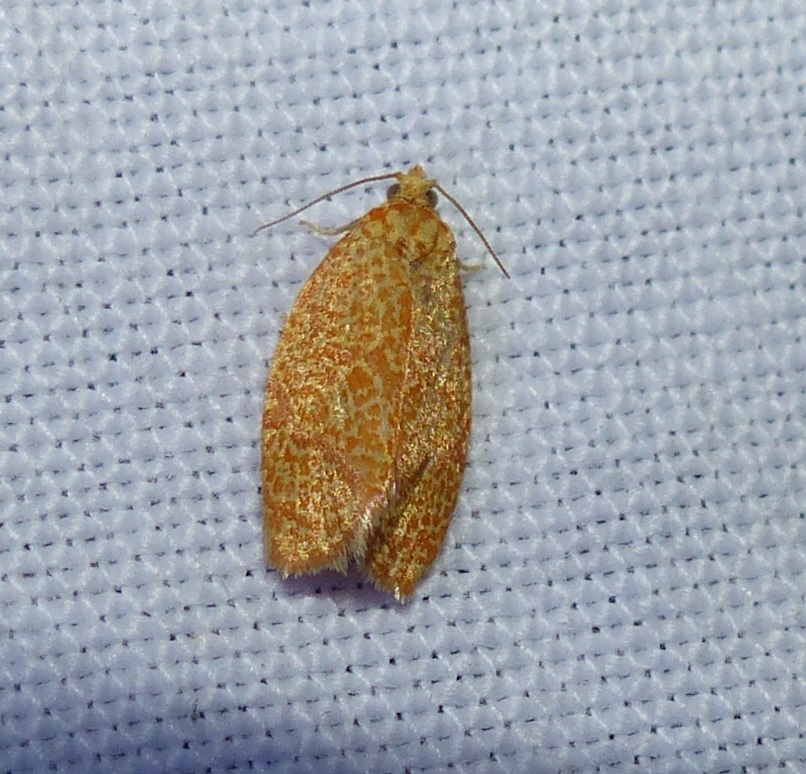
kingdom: Animalia
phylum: Arthropoda
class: Insecta
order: Lepidoptera
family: Tortricidae
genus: Argyrotaenia
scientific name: Argyrotaenia quadrifasciana
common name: Four-lined leafroller moth
